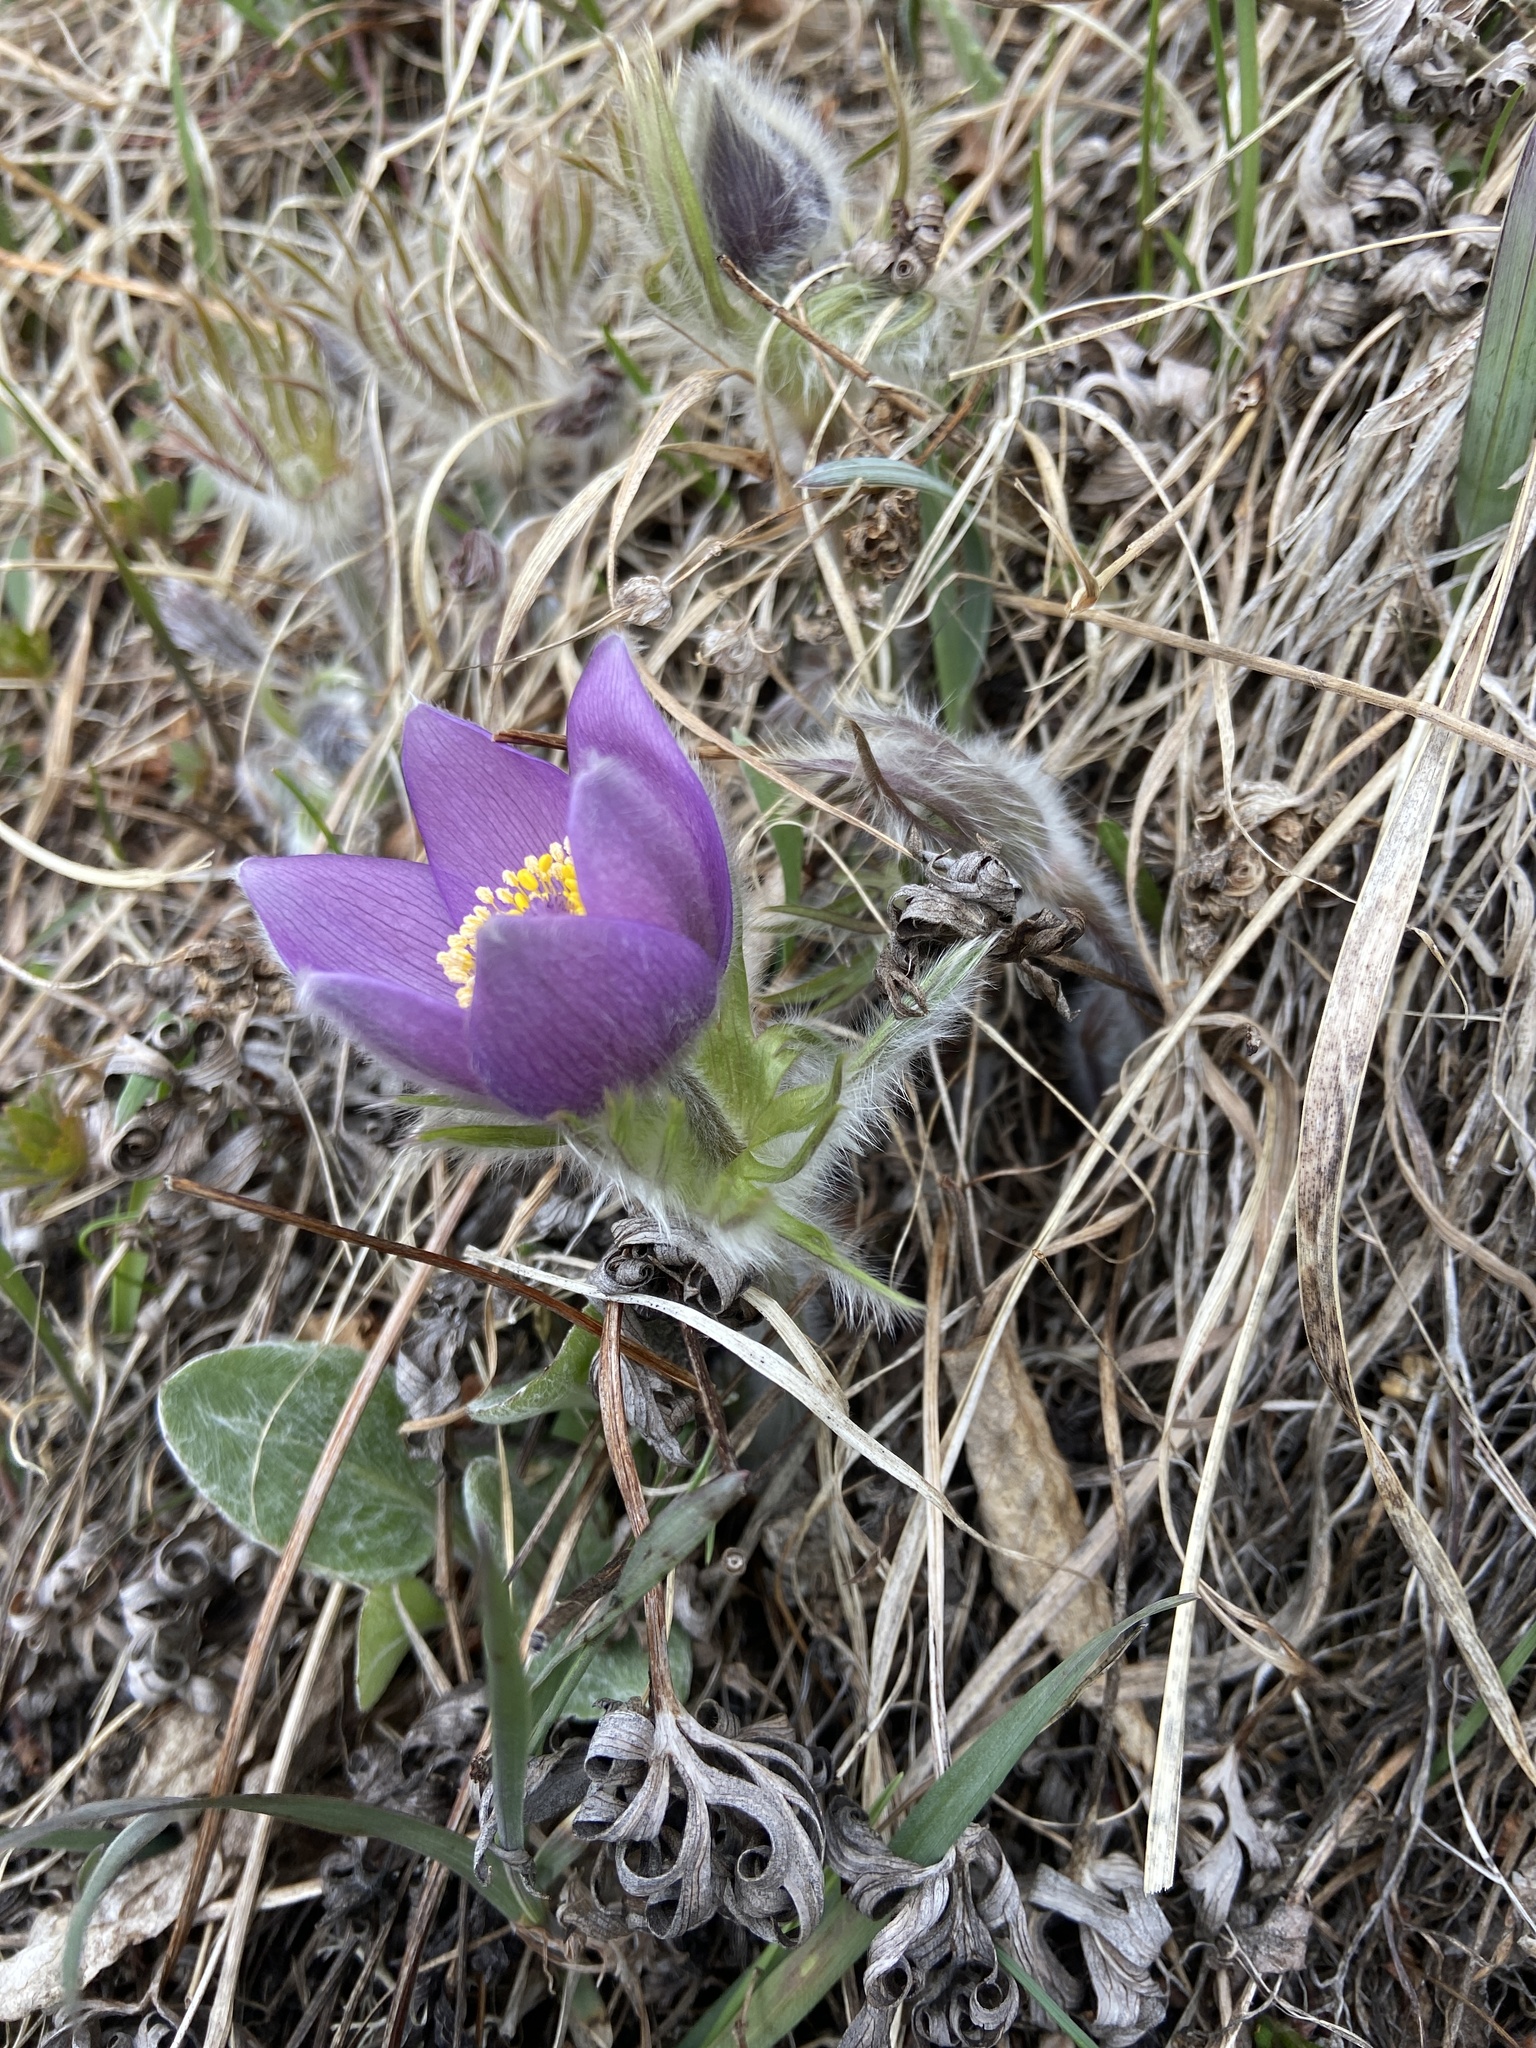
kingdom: Plantae
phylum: Tracheophyta
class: Magnoliopsida
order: Ranunculales
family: Ranunculaceae
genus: Pulsatilla
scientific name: Pulsatilla patens
